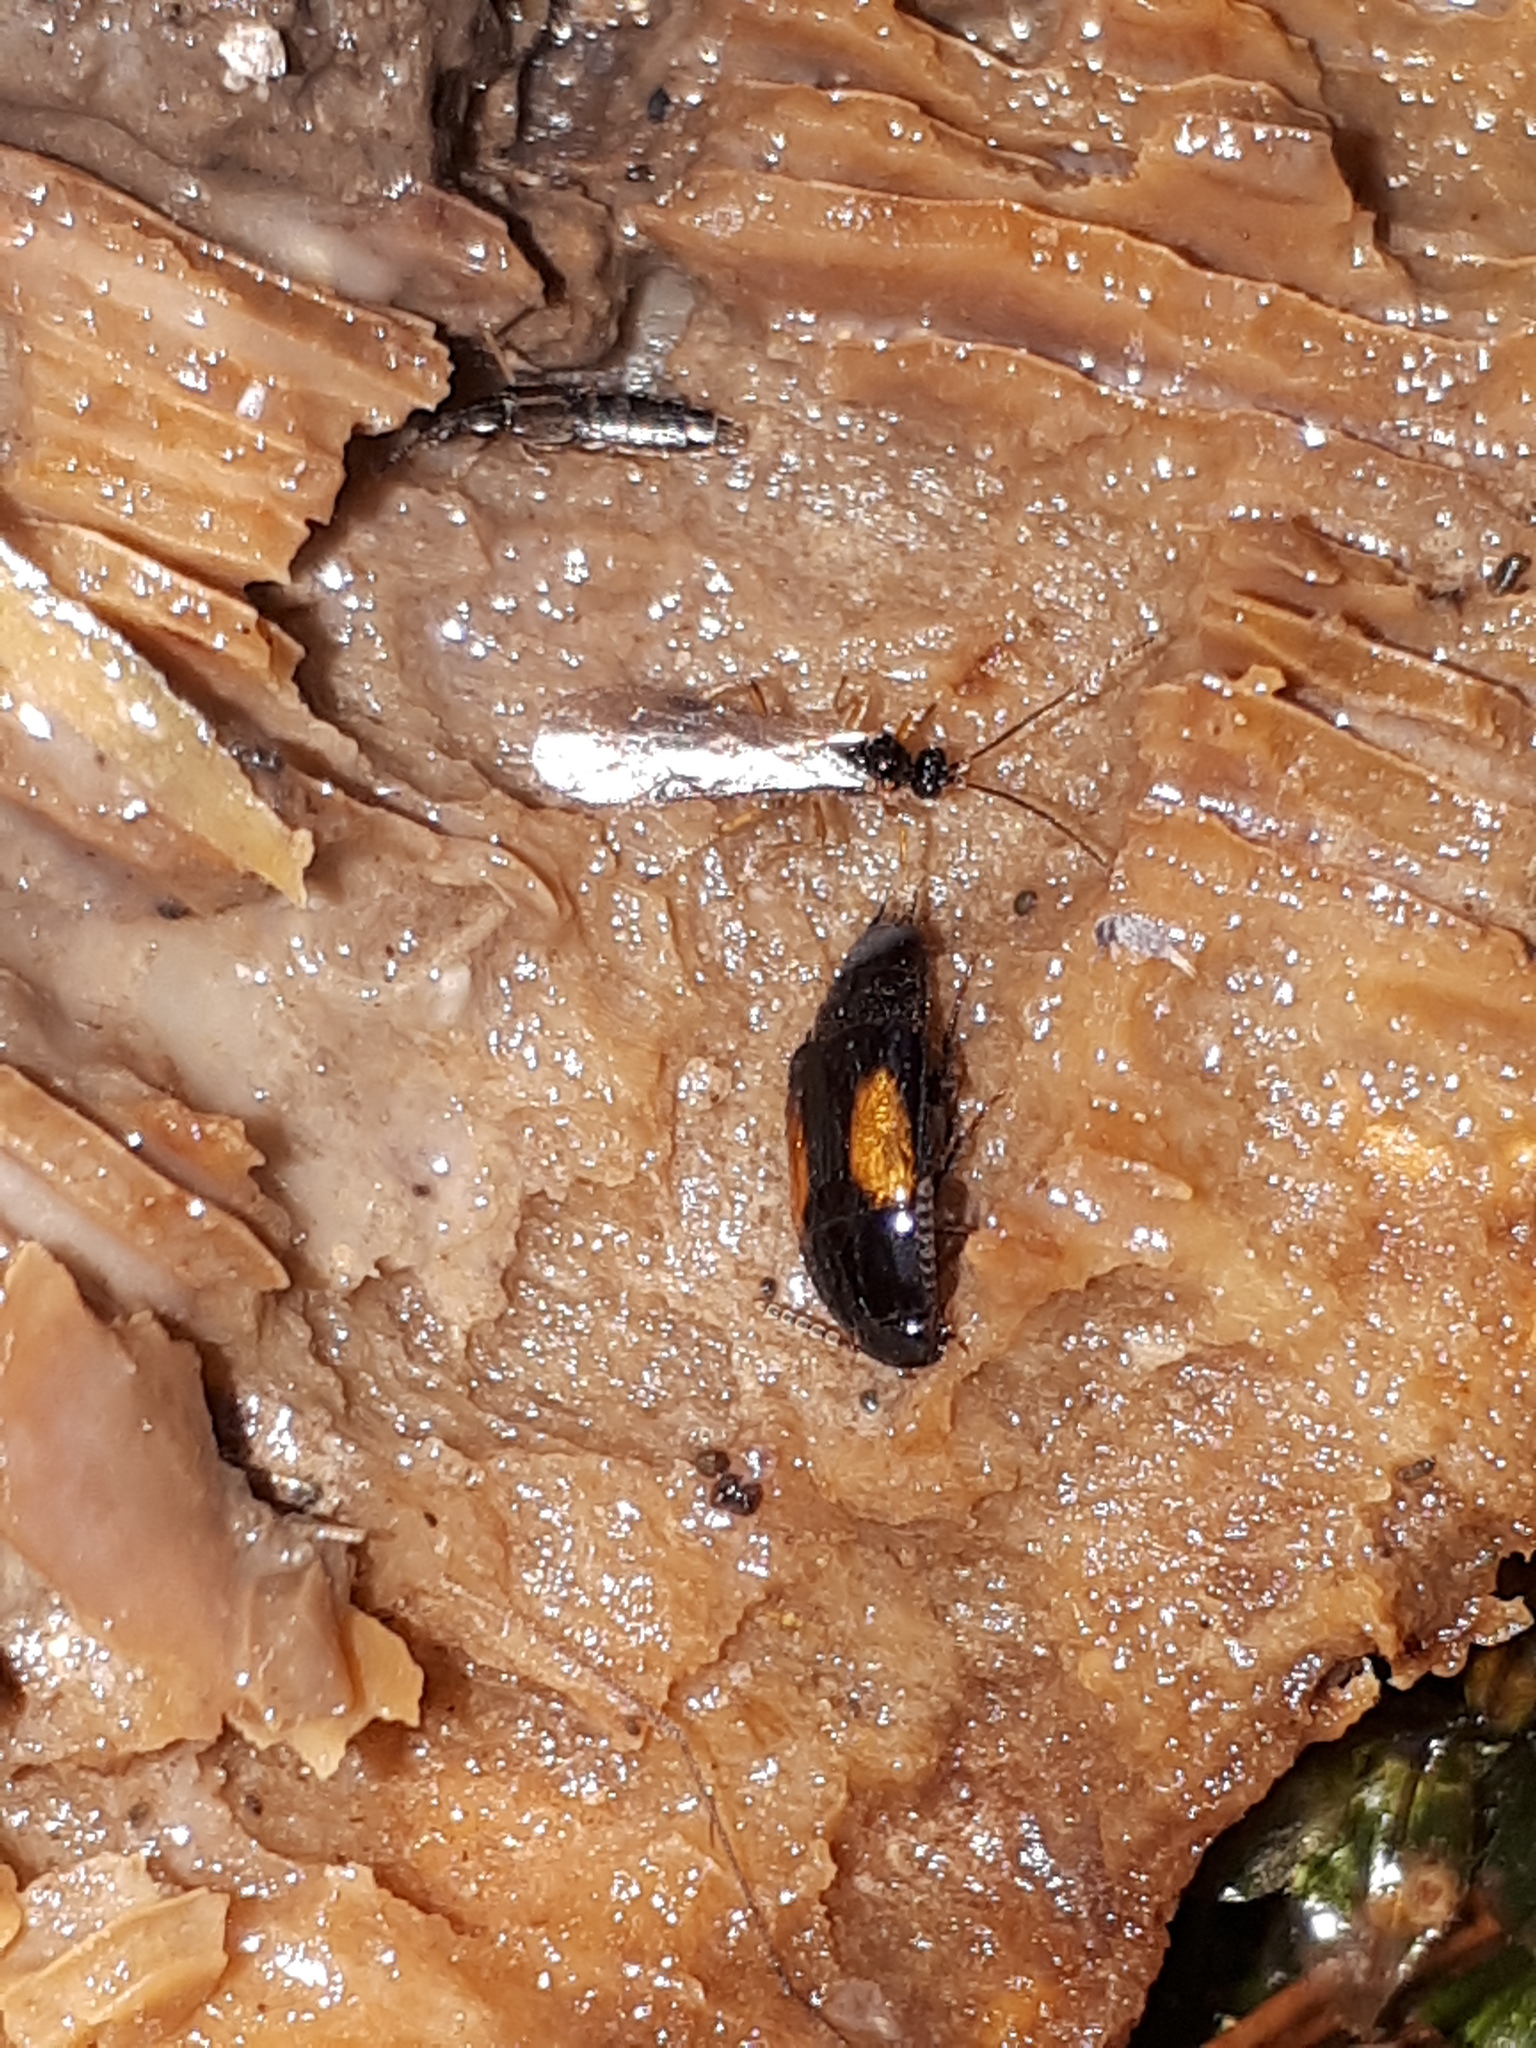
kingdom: Animalia
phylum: Arthropoda
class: Insecta
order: Coleoptera
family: Staphylinidae
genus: Tachinus
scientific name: Tachinus subterraneus
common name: Staph beetle
